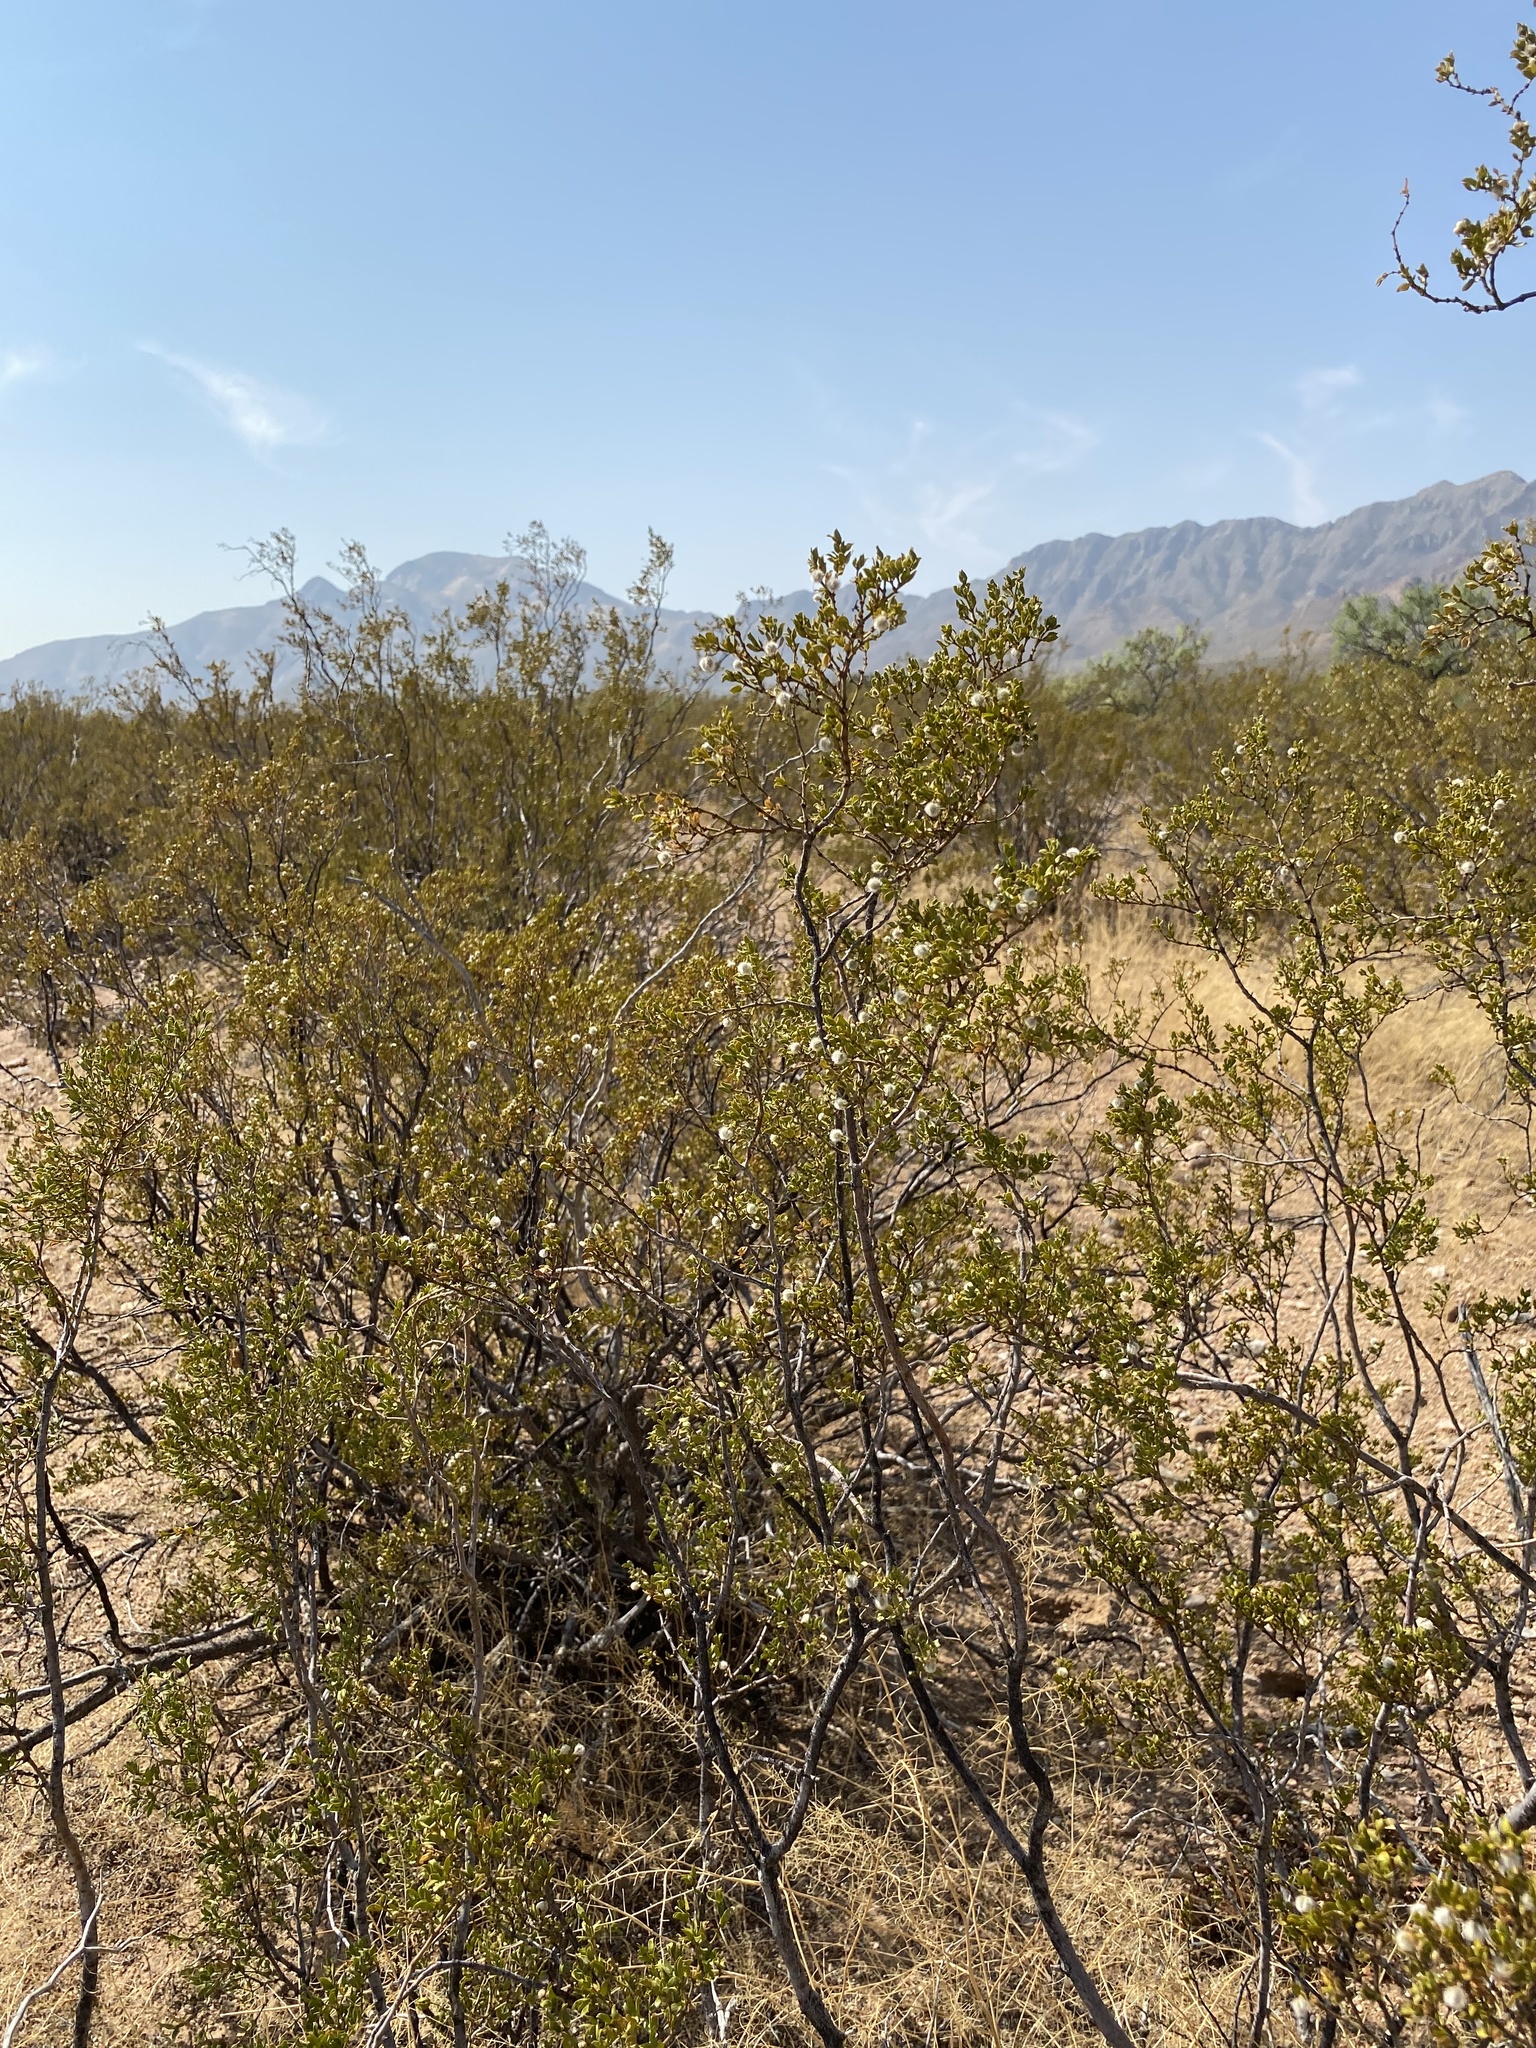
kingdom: Plantae
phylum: Tracheophyta
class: Magnoliopsida
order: Zygophyllales
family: Zygophyllaceae
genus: Larrea
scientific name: Larrea tridentata
